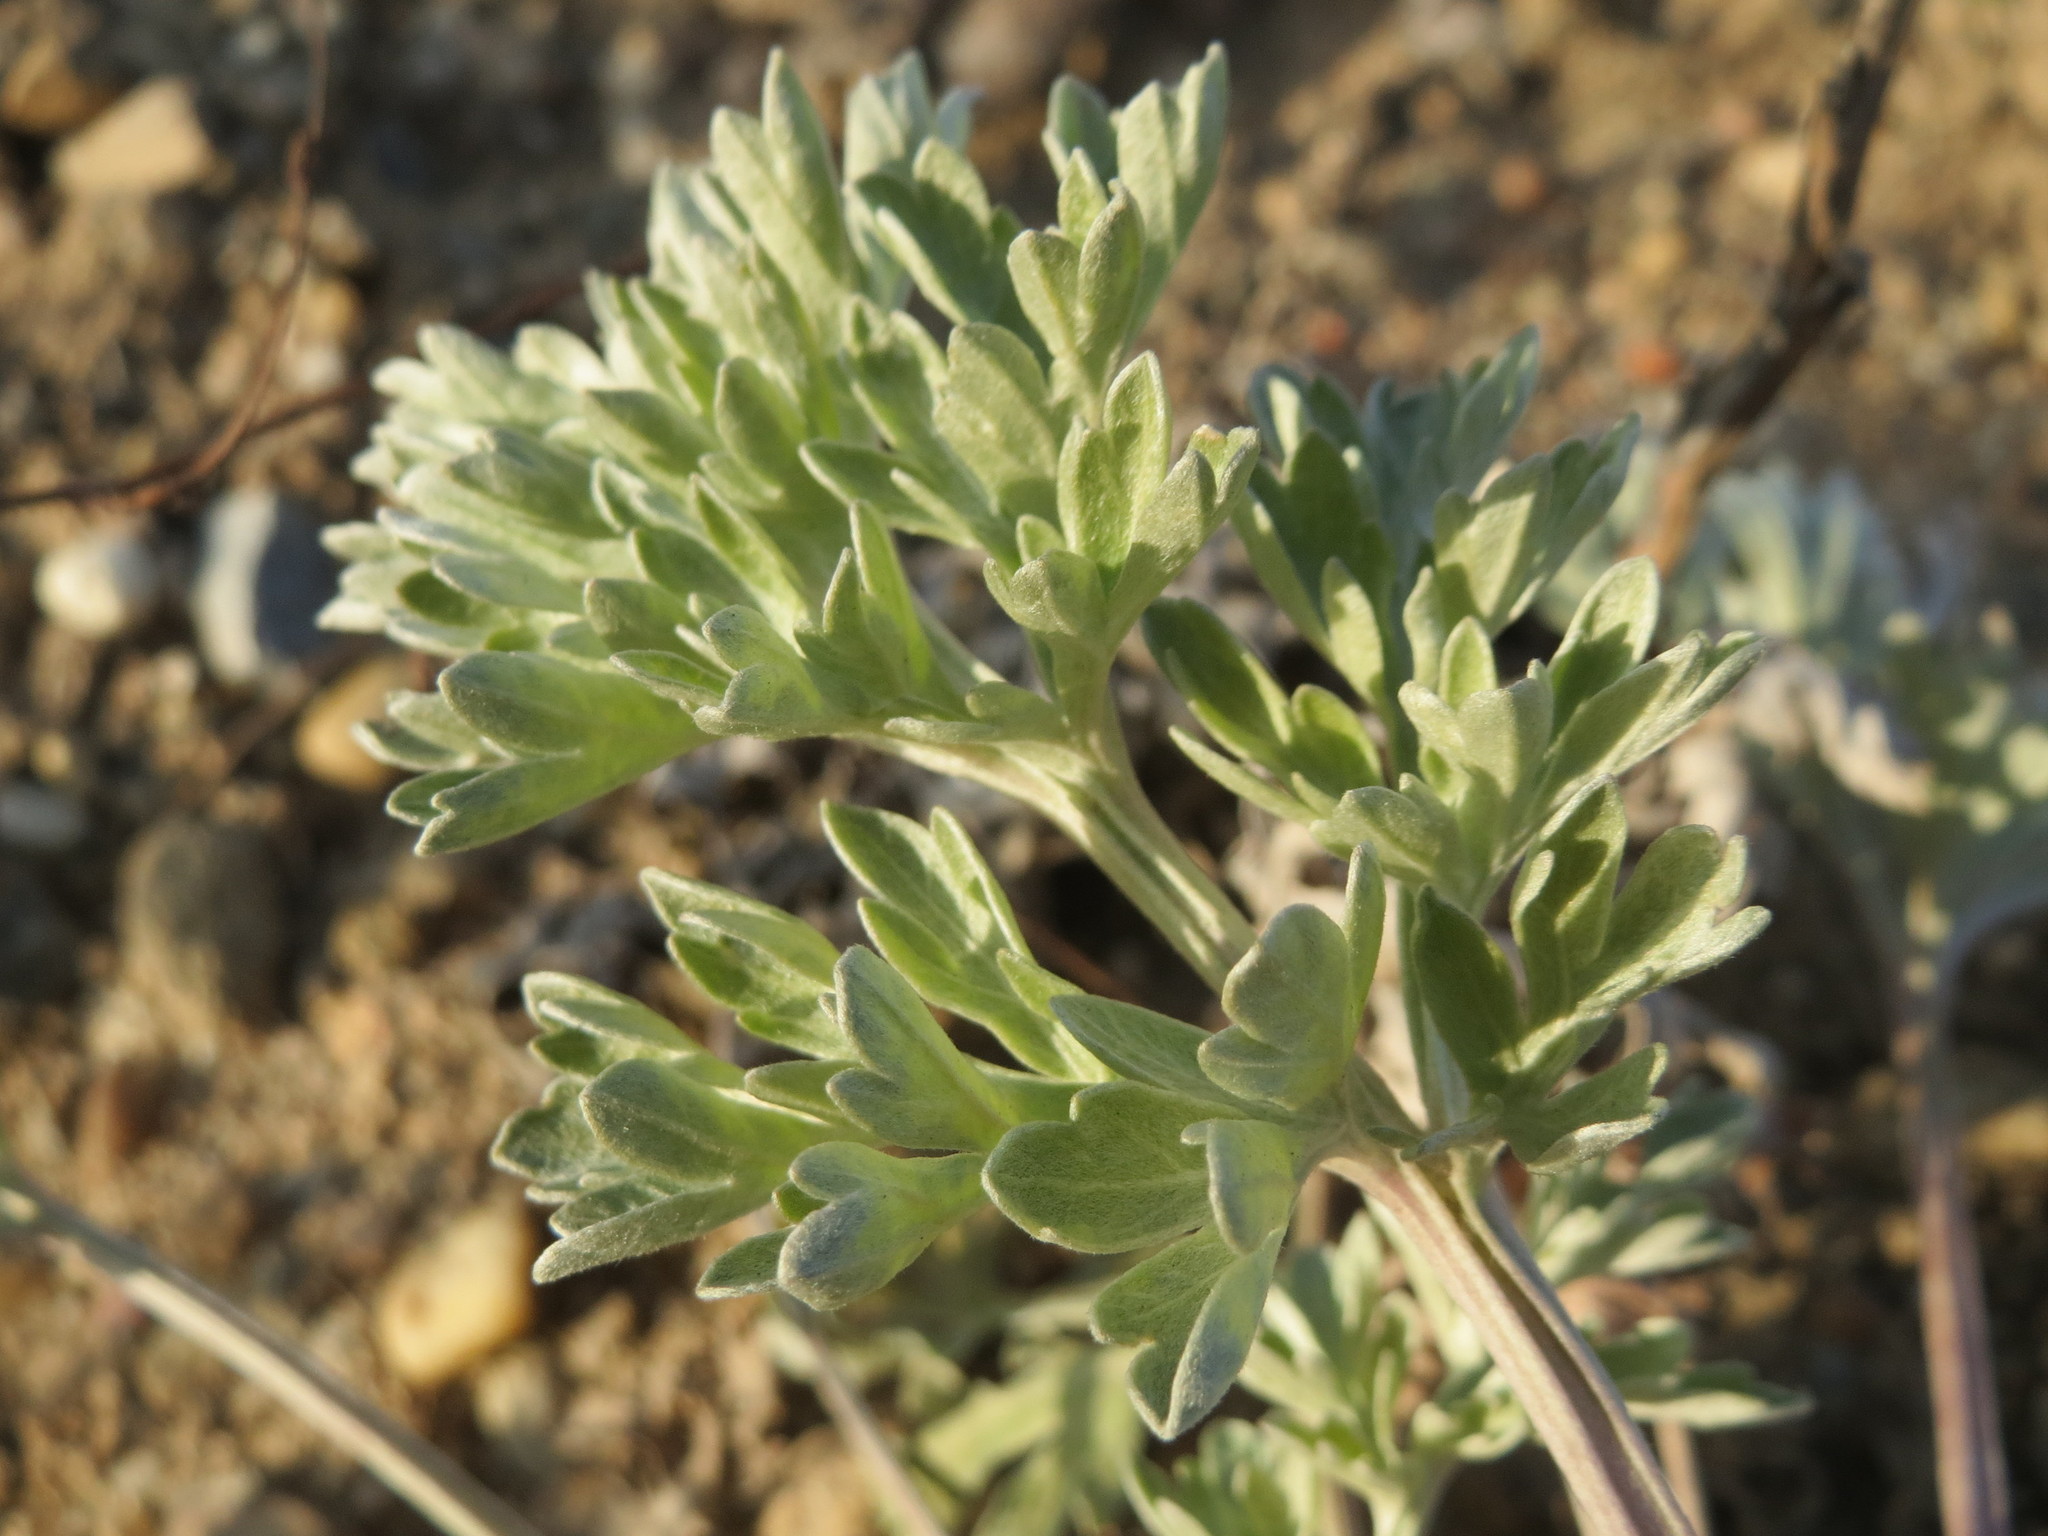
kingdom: Plantae
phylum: Tracheophyta
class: Magnoliopsida
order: Asterales
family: Asteraceae
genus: Artemisia
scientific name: Artemisia absinthium
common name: Wormwood
